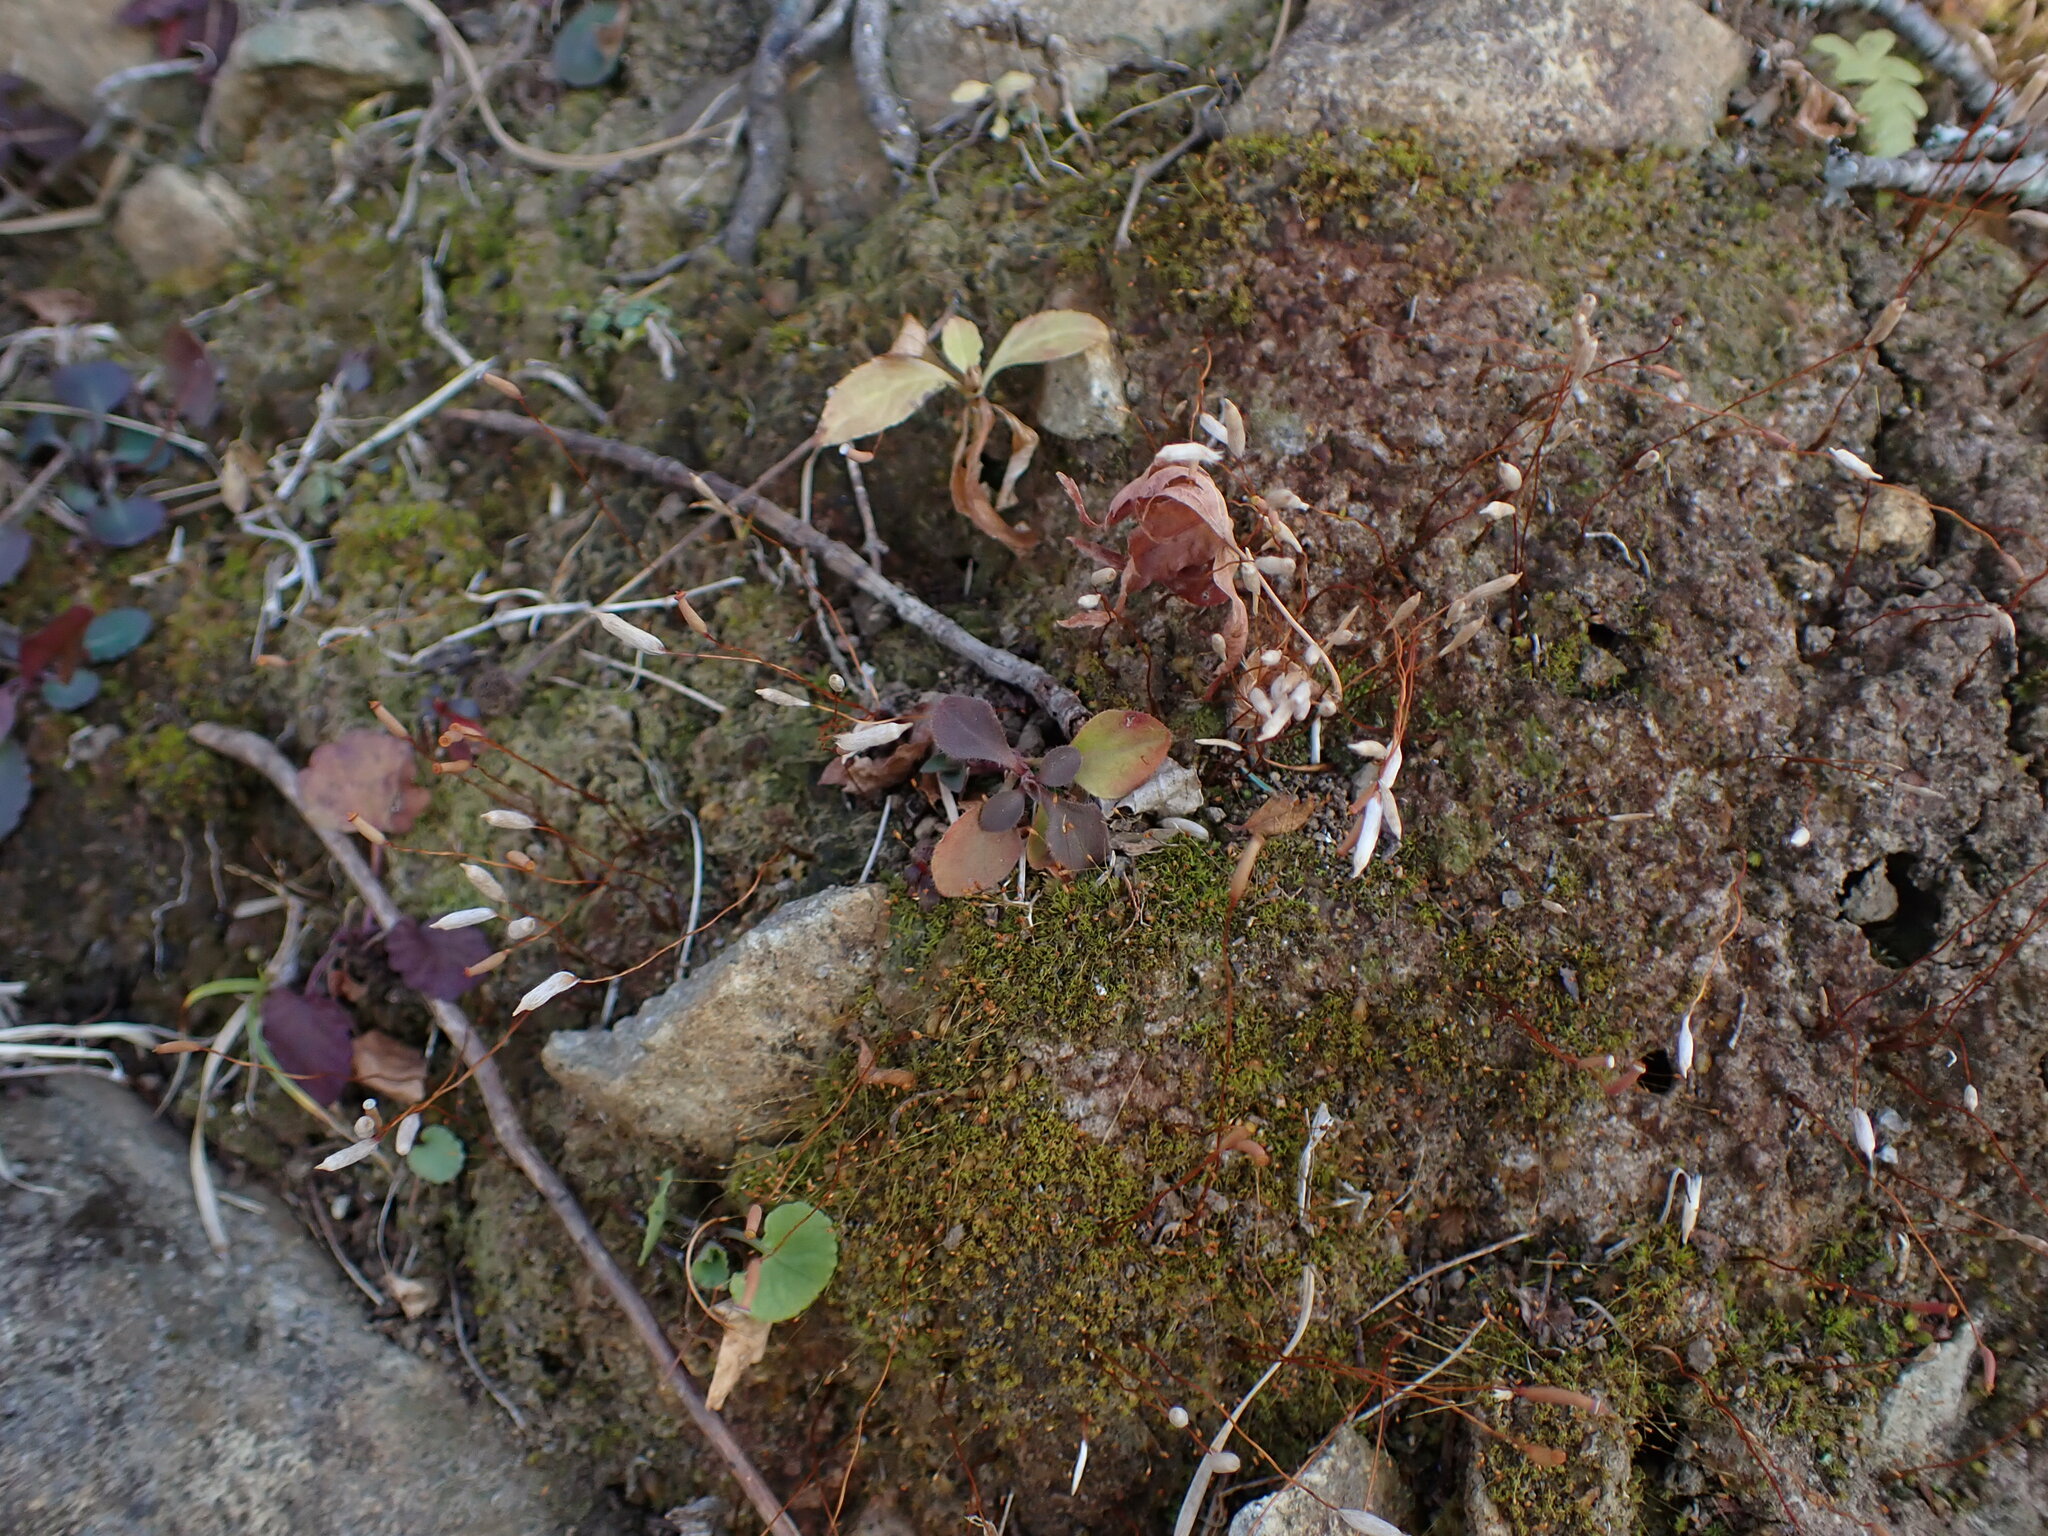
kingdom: Plantae
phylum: Bryophyta
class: Polytrichopsida
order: Polytrichales
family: Polytrichaceae
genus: Pogonatum
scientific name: Pogonatum spinulosum
